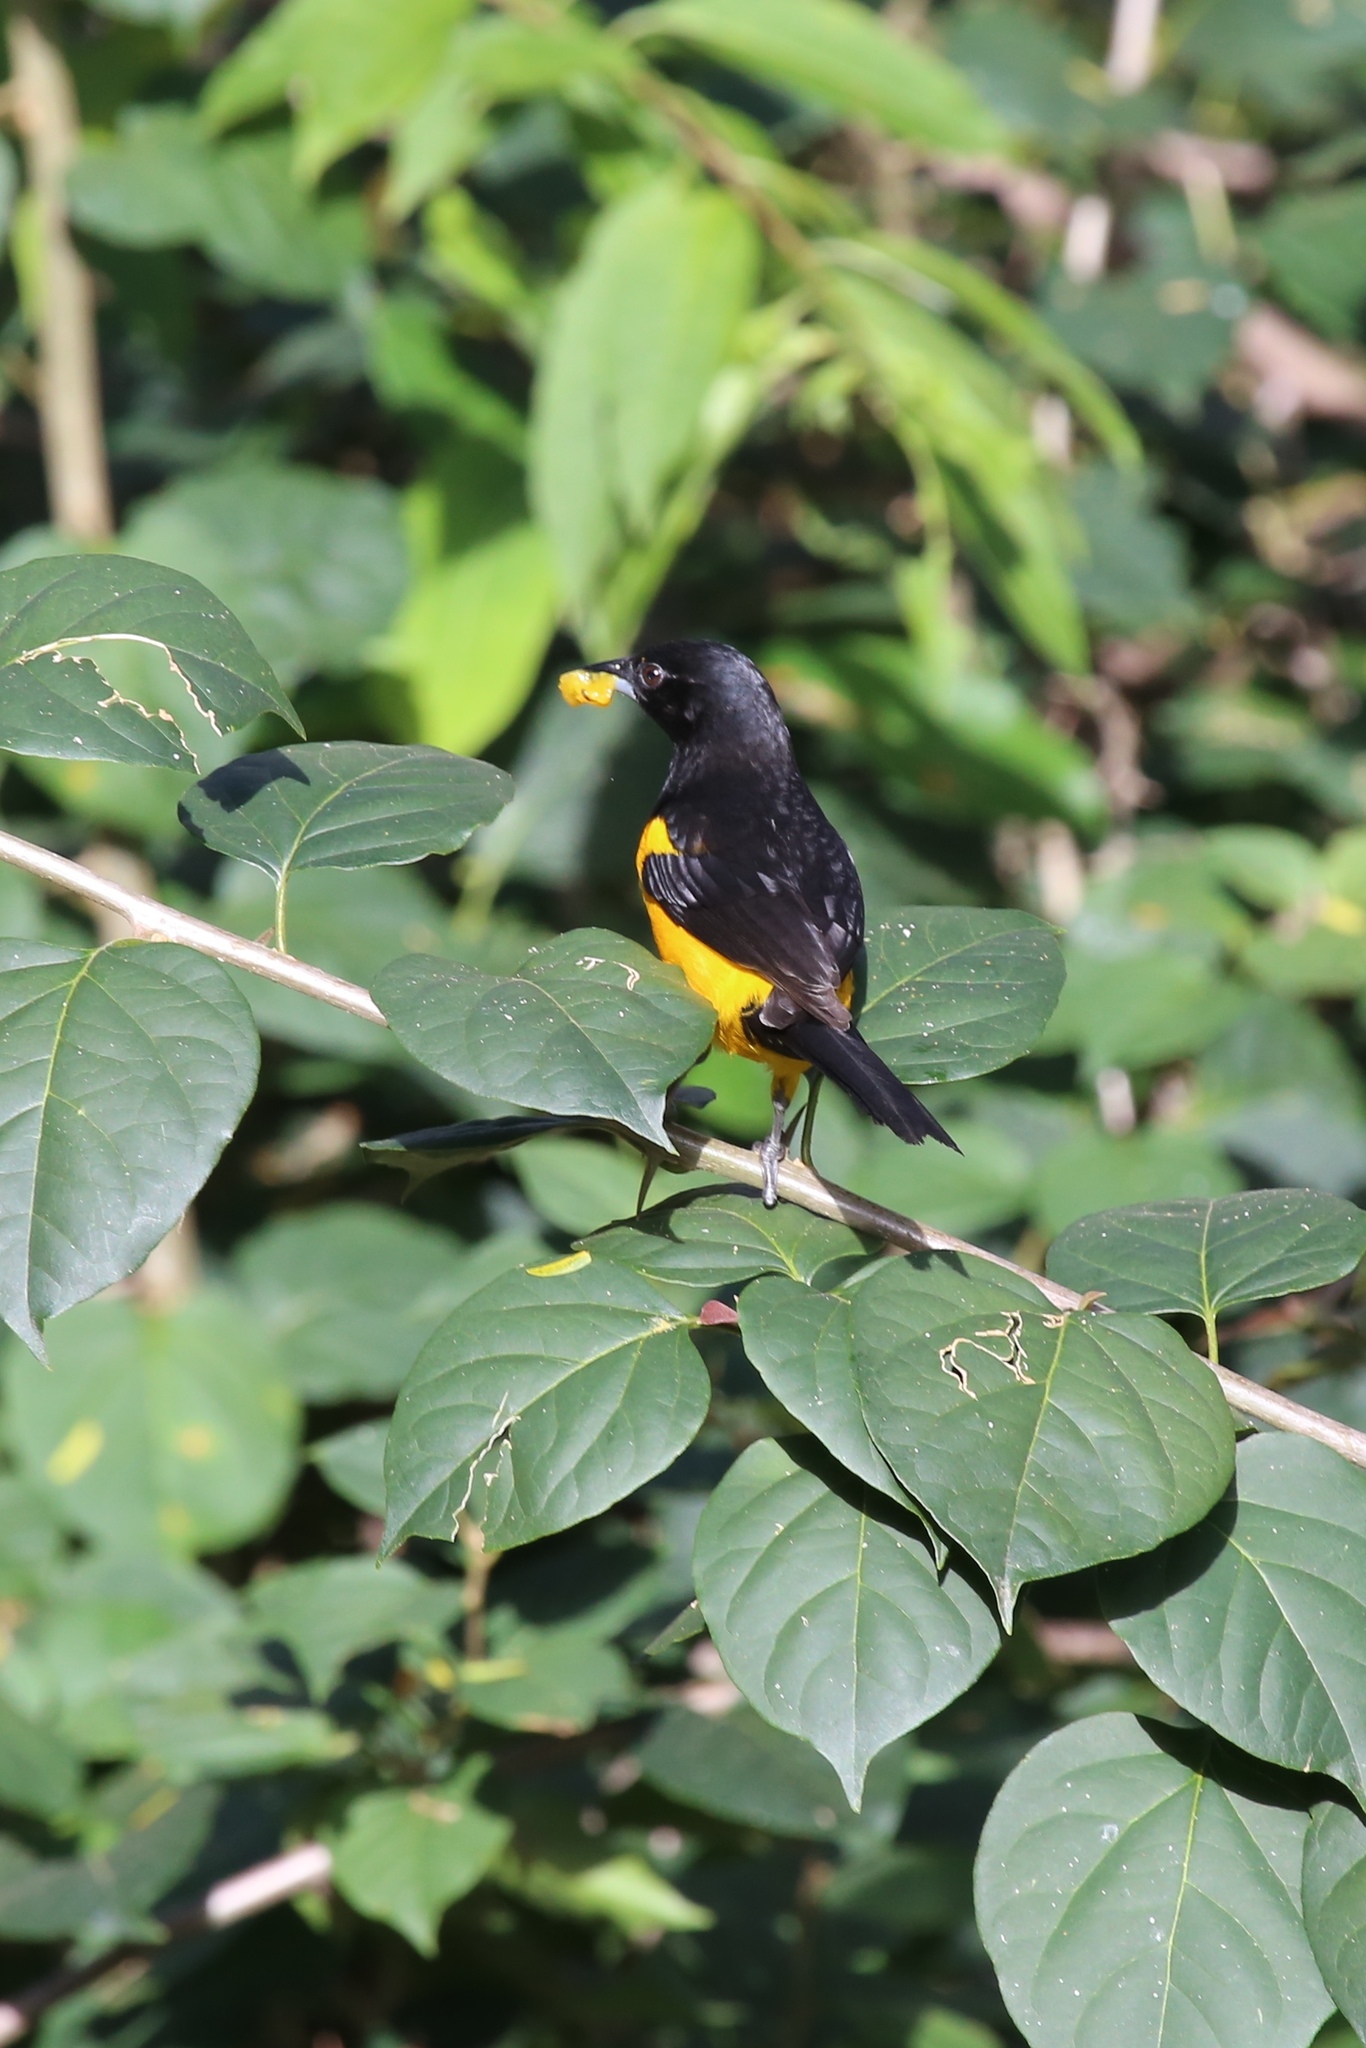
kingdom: Animalia
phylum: Chordata
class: Aves
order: Passeriformes
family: Icteridae
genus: Icterus
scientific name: Icterus wagleri
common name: Black-vented oriole
